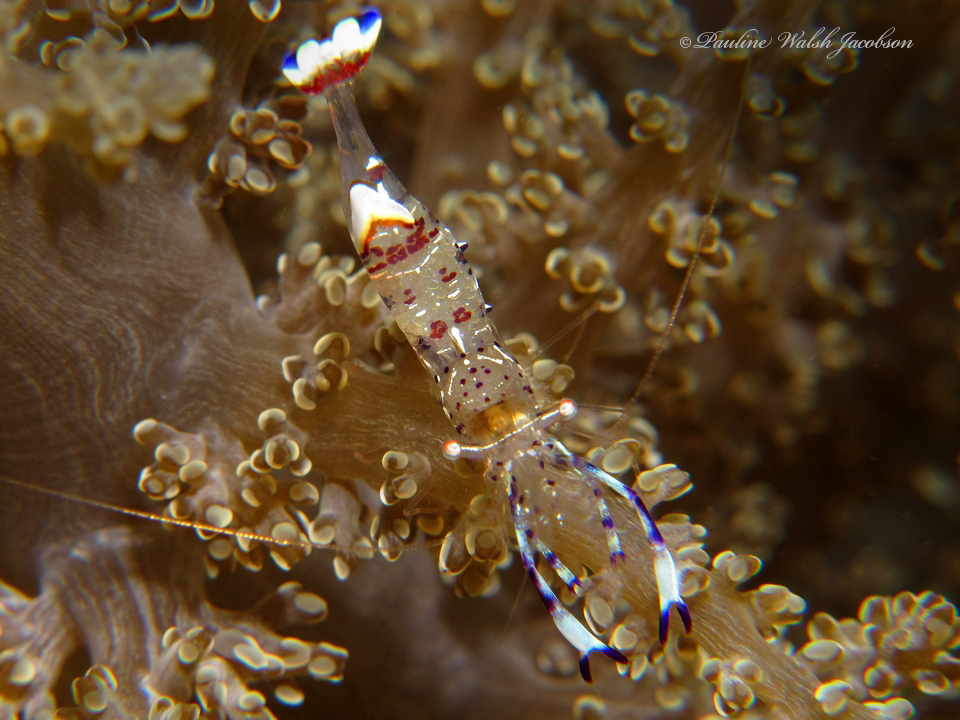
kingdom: Animalia
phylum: Arthropoda
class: Malacostraca
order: Decapoda
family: Palaemonidae
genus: Ancylomenes
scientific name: Ancylomenes holthuisi
